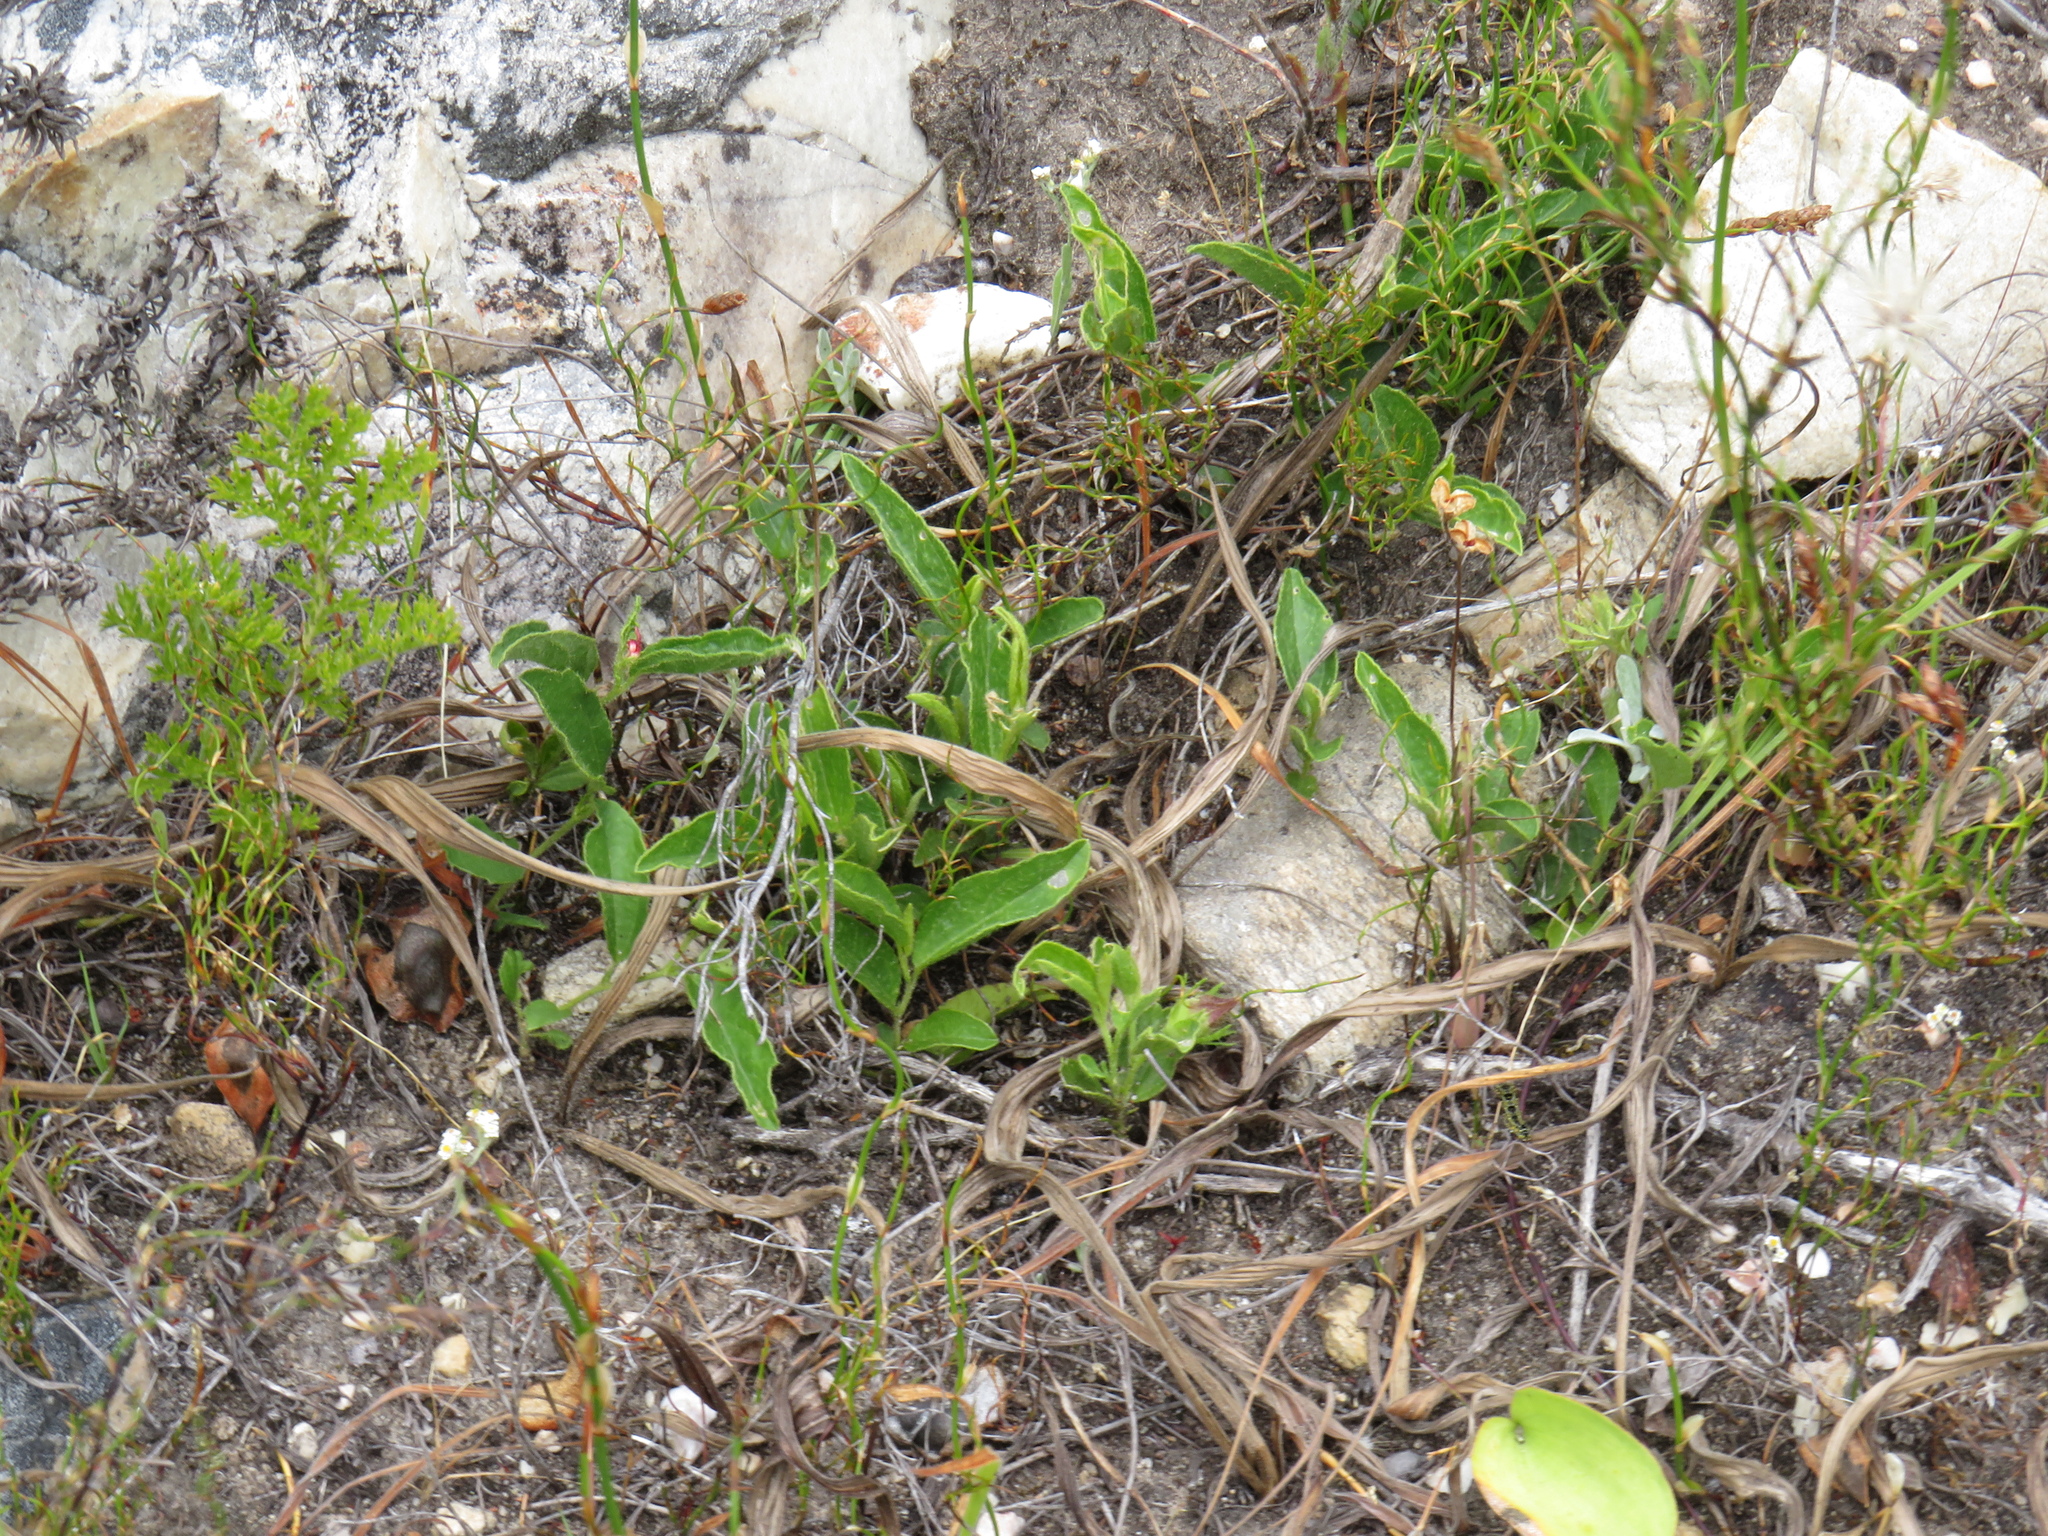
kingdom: Plantae
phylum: Tracheophyta
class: Magnoliopsida
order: Malvales
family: Malvaceae
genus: Hibiscus
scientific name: Hibiscus aethiopicus
